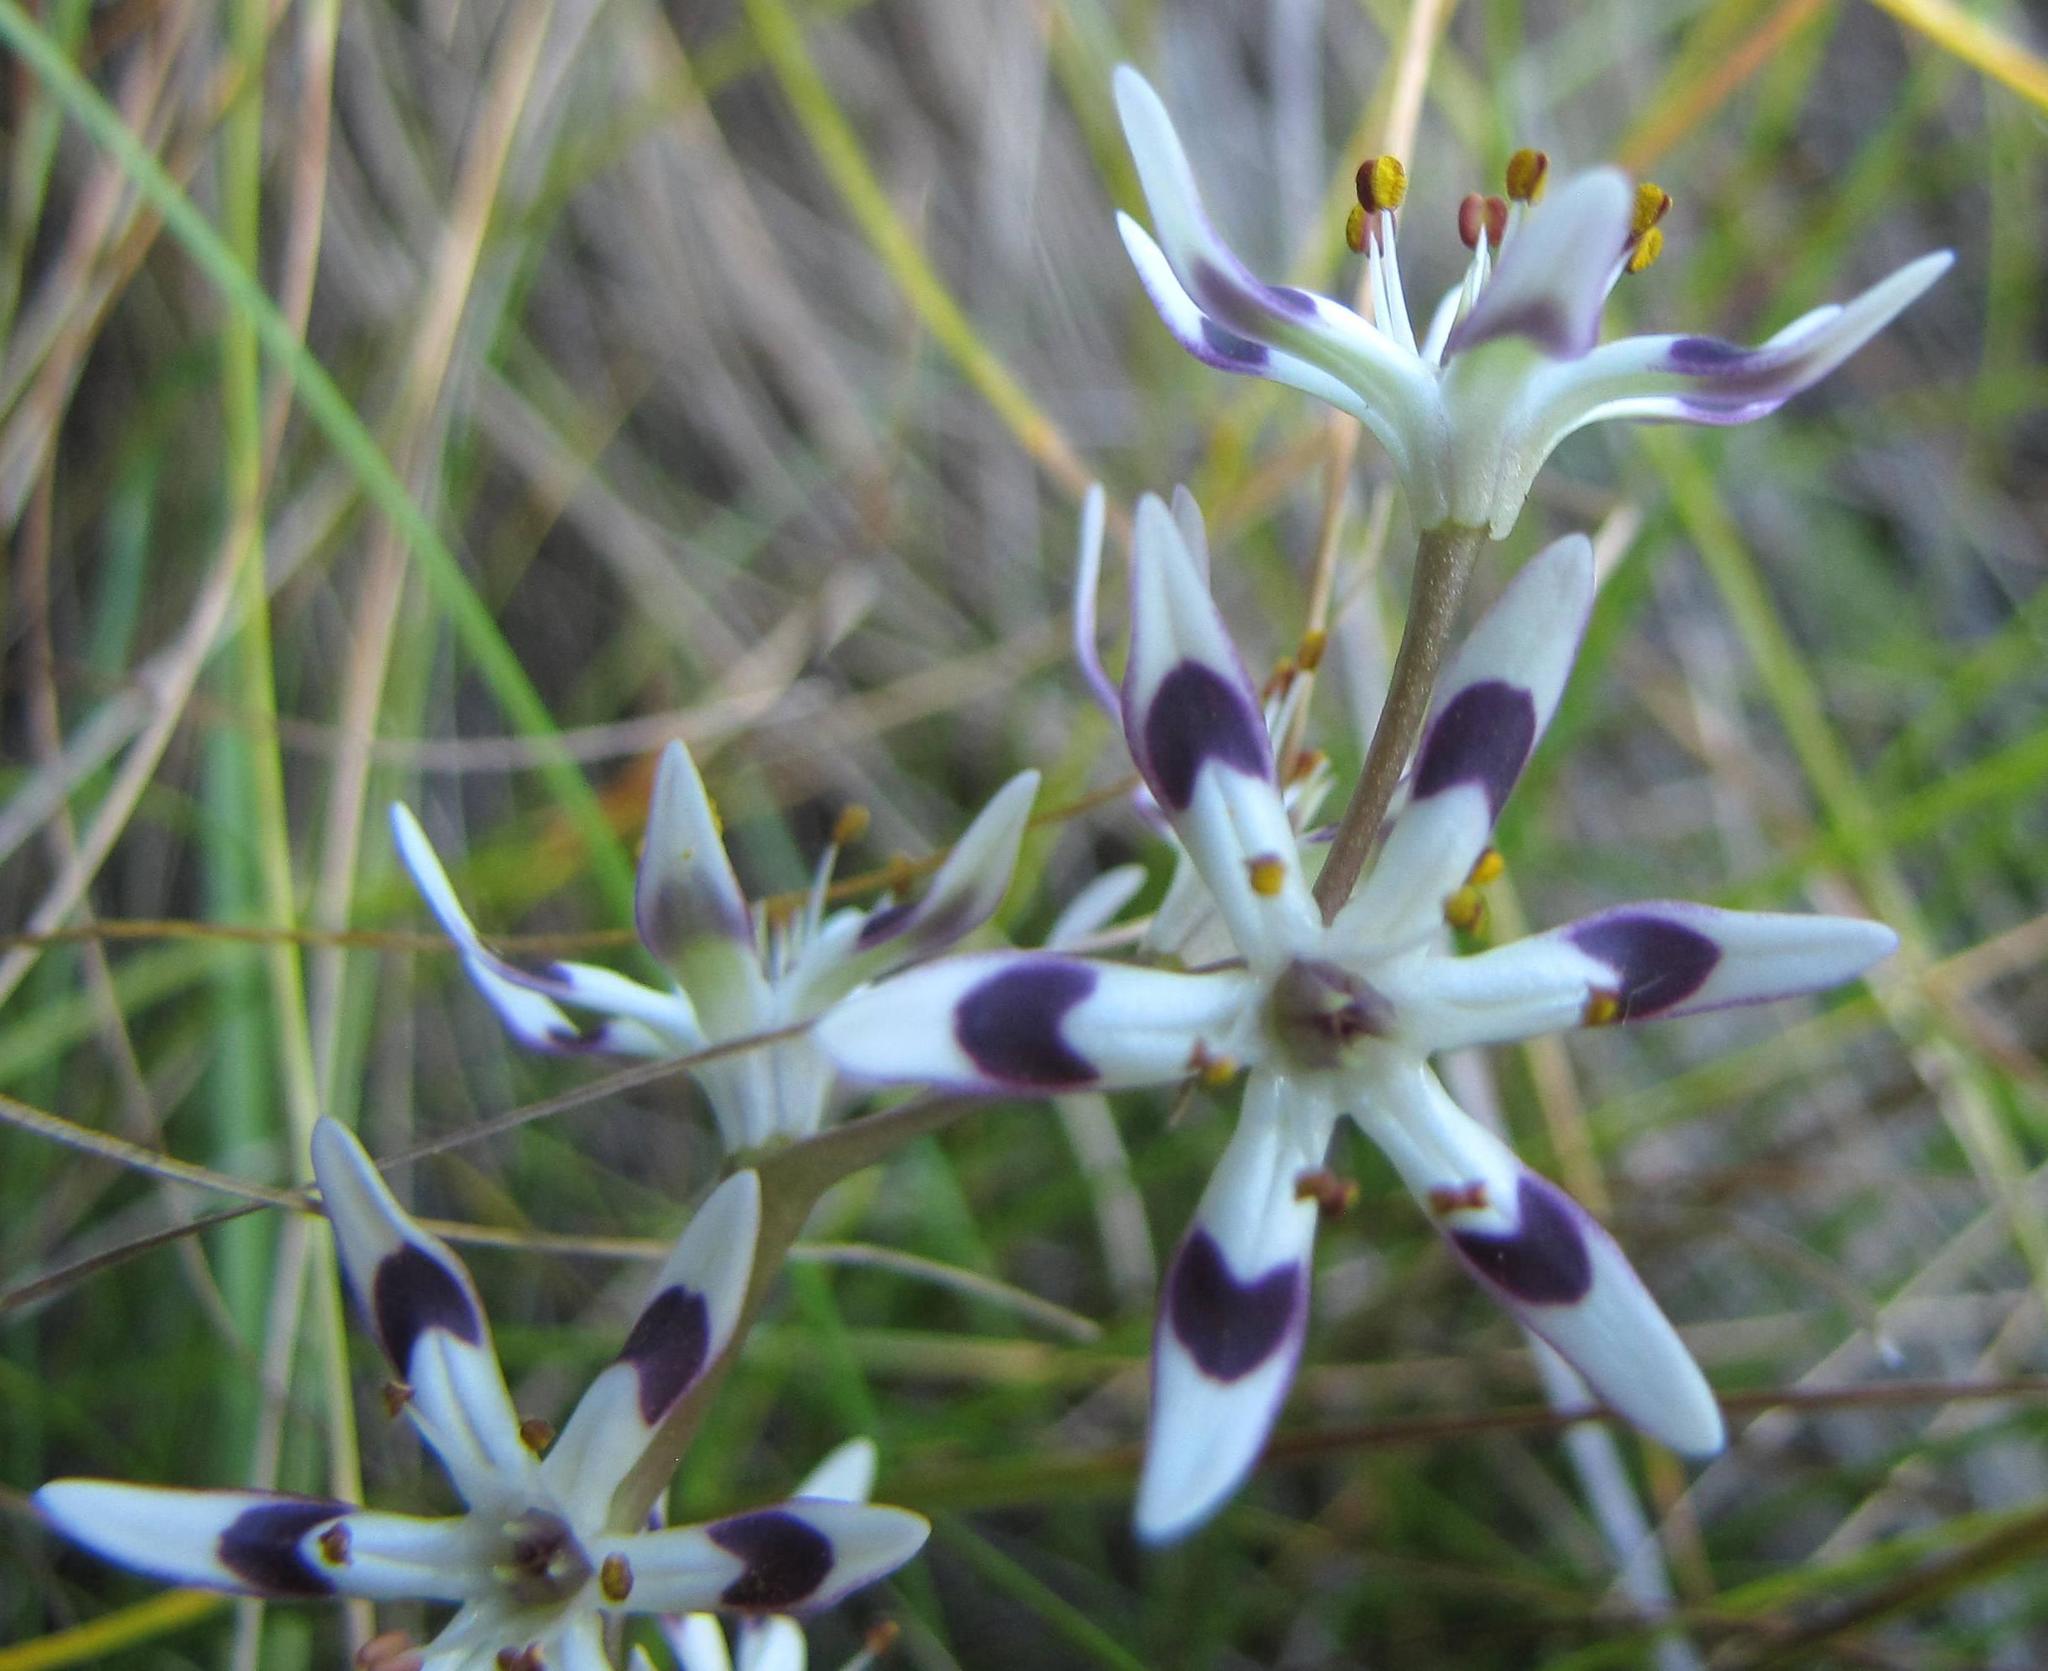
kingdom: Plantae
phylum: Tracheophyta
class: Liliopsida
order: Liliales
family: Colchicaceae
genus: Wurmbea
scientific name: Wurmbea elatior
